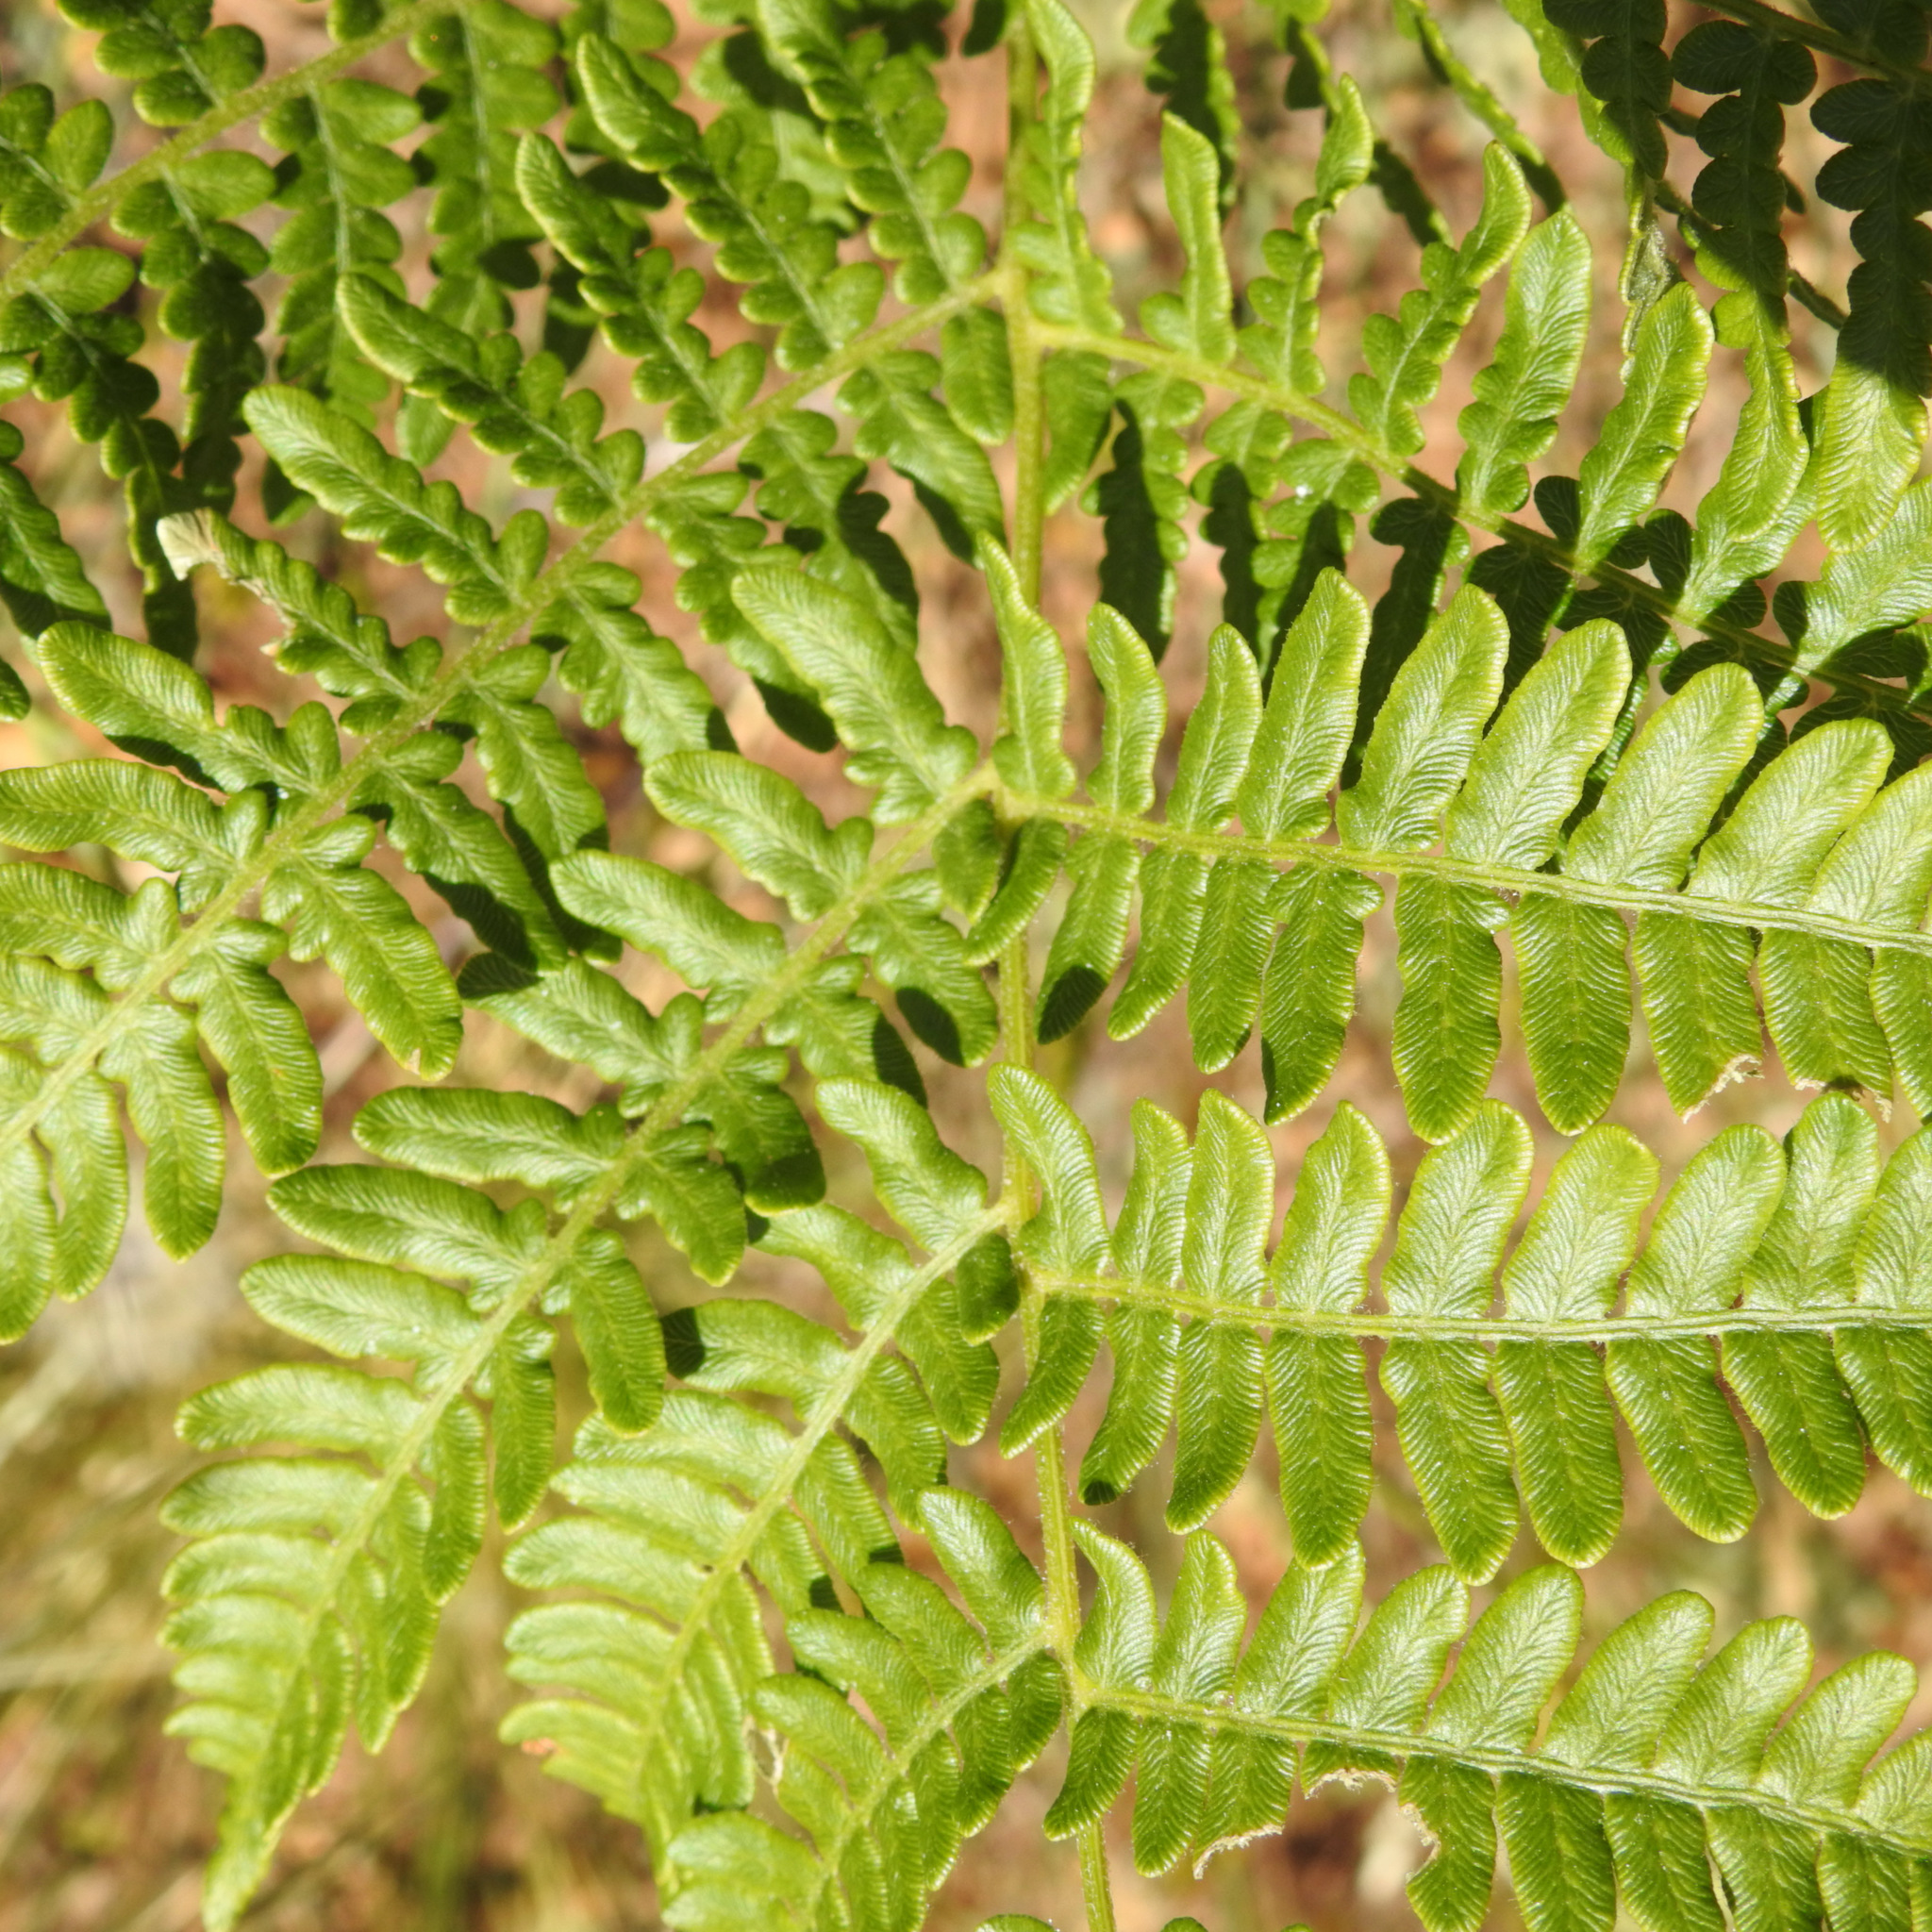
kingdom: Plantae
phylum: Tracheophyta
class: Polypodiopsida
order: Polypodiales
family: Dennstaedtiaceae
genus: Pteridium
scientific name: Pteridium aquilinum
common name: Bracken
